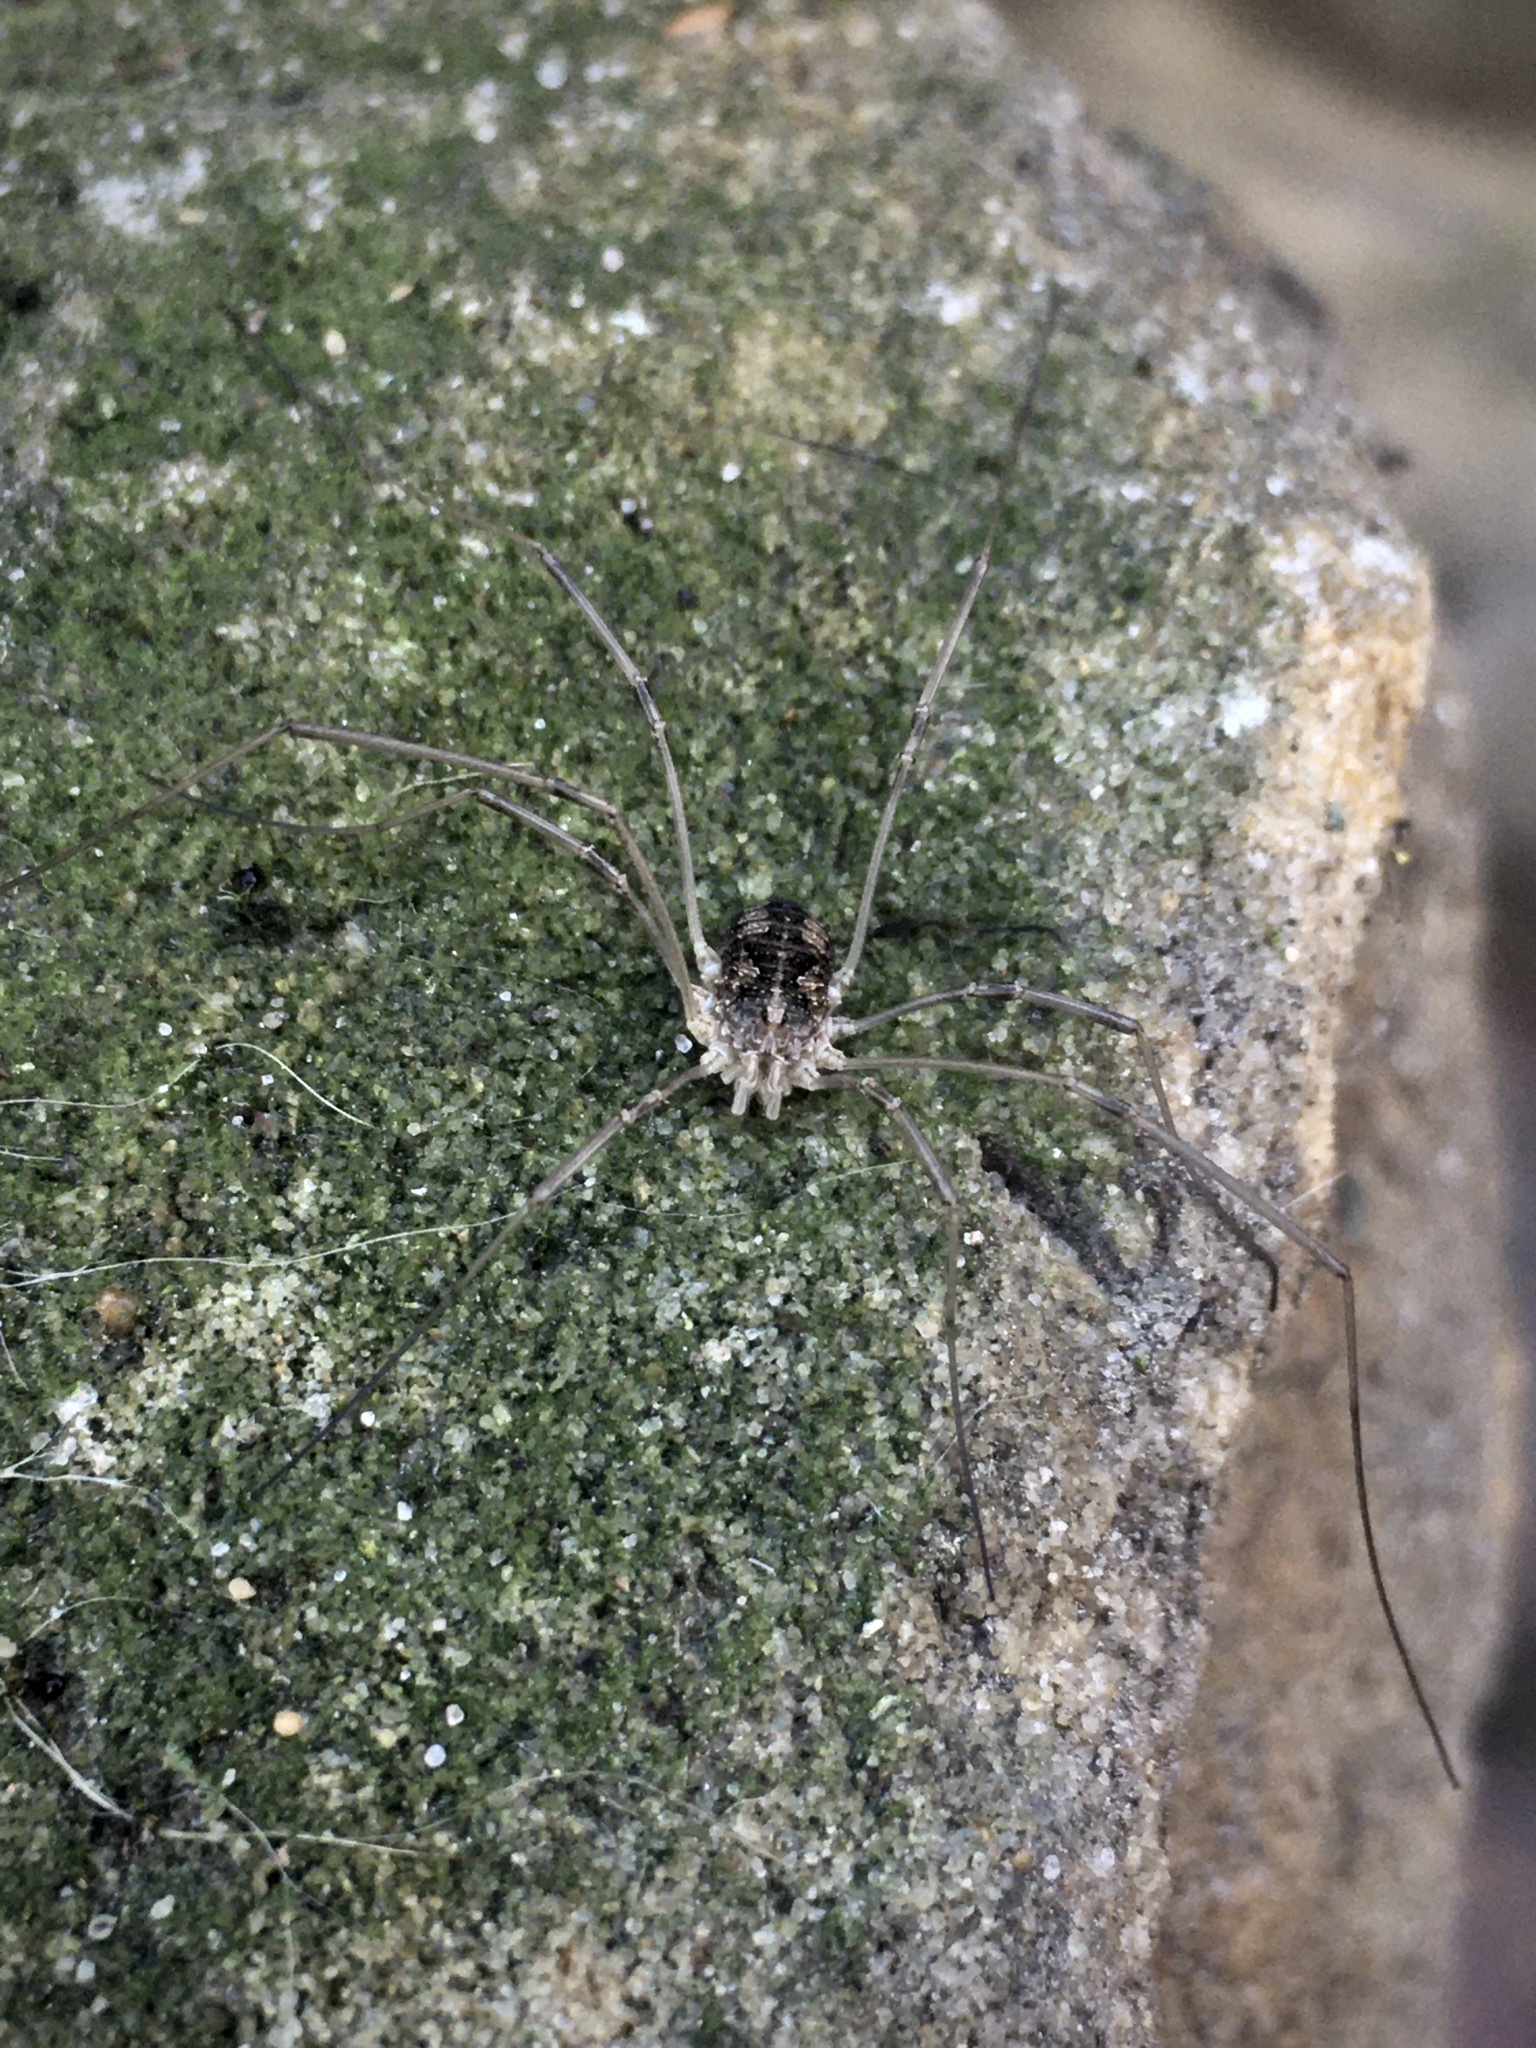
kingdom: Animalia
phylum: Arthropoda
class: Arachnida
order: Opiliones
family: Phalangiidae
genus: Phalangium
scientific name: Phalangium opilio
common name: Daddy longleg
